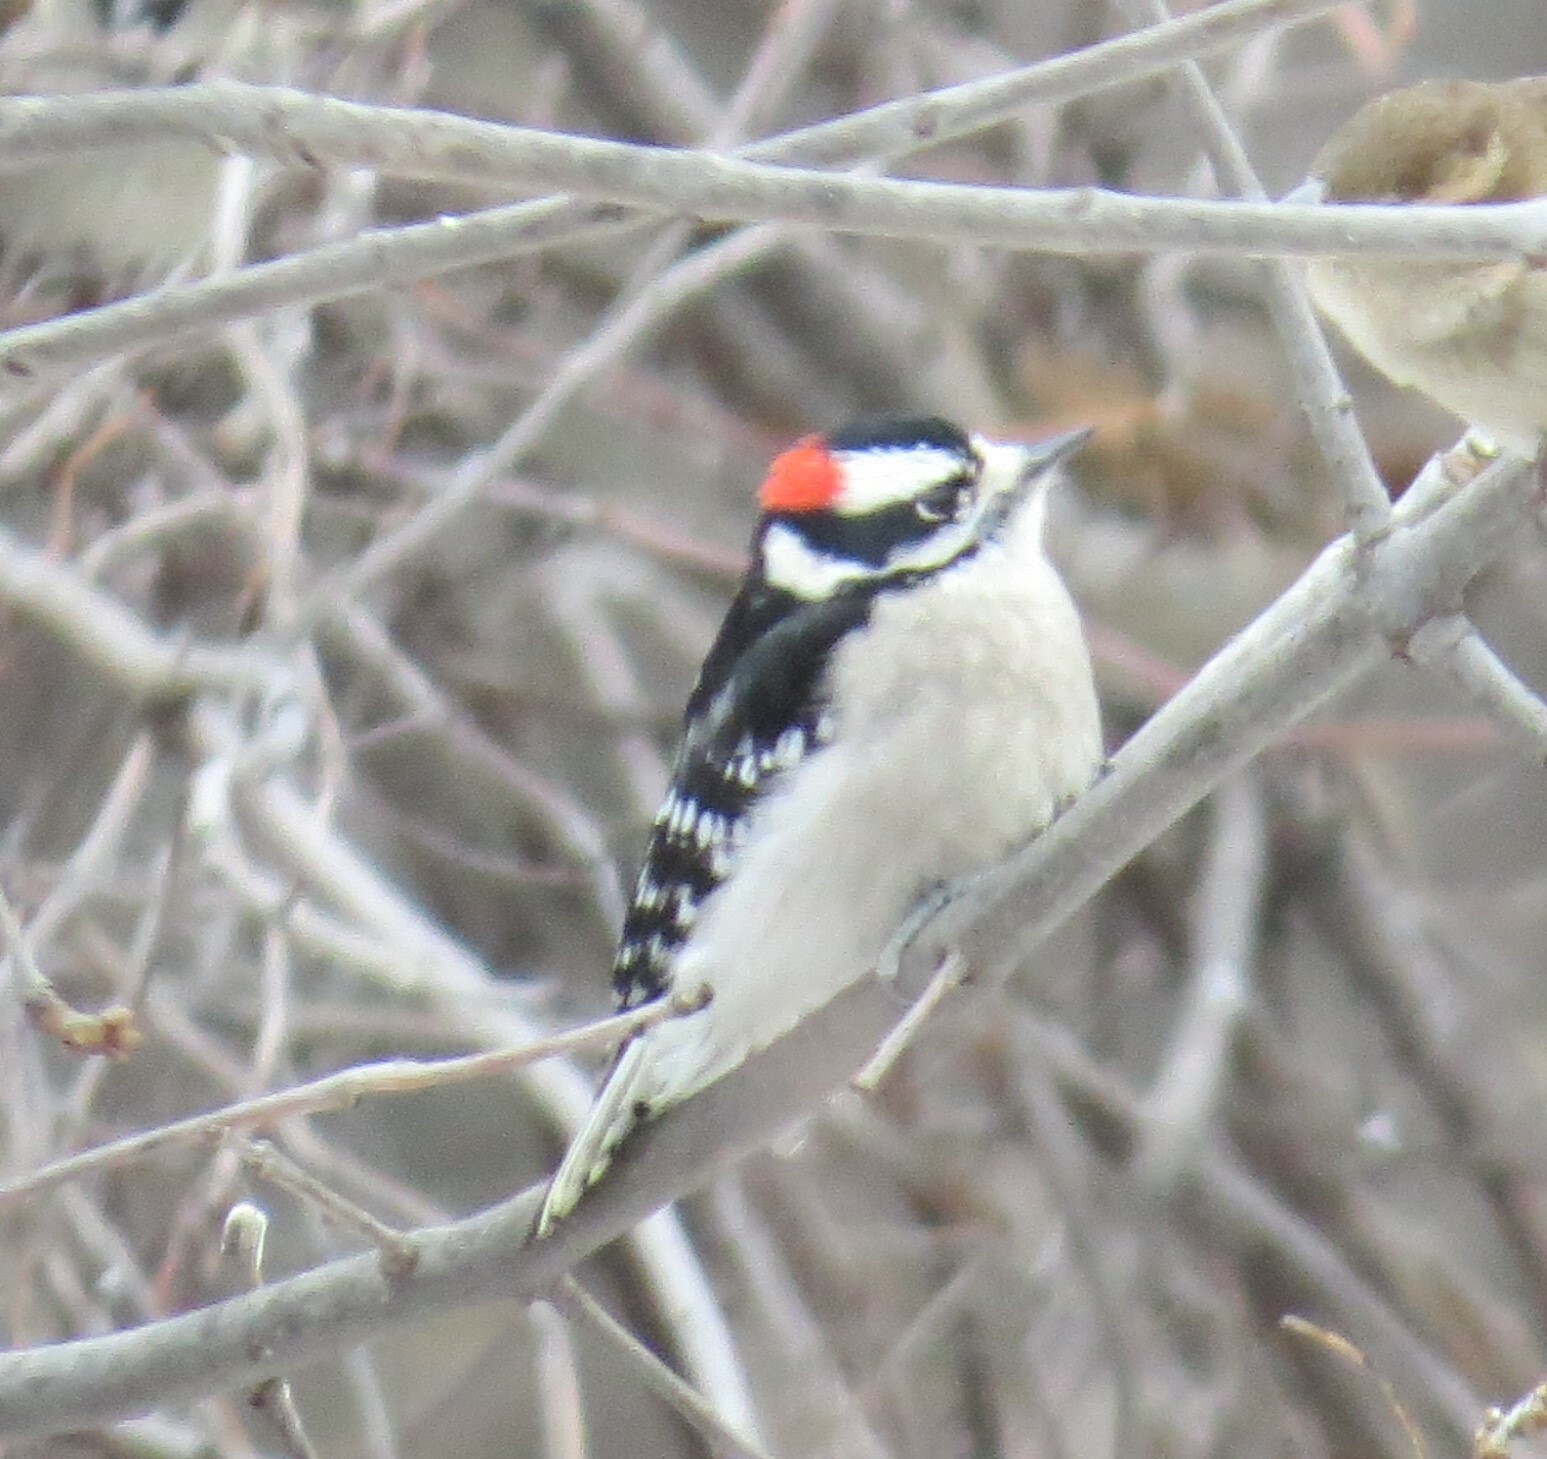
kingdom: Animalia
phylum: Chordata
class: Aves
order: Piciformes
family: Picidae
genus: Dryobates
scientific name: Dryobates pubescens
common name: Downy woodpecker
